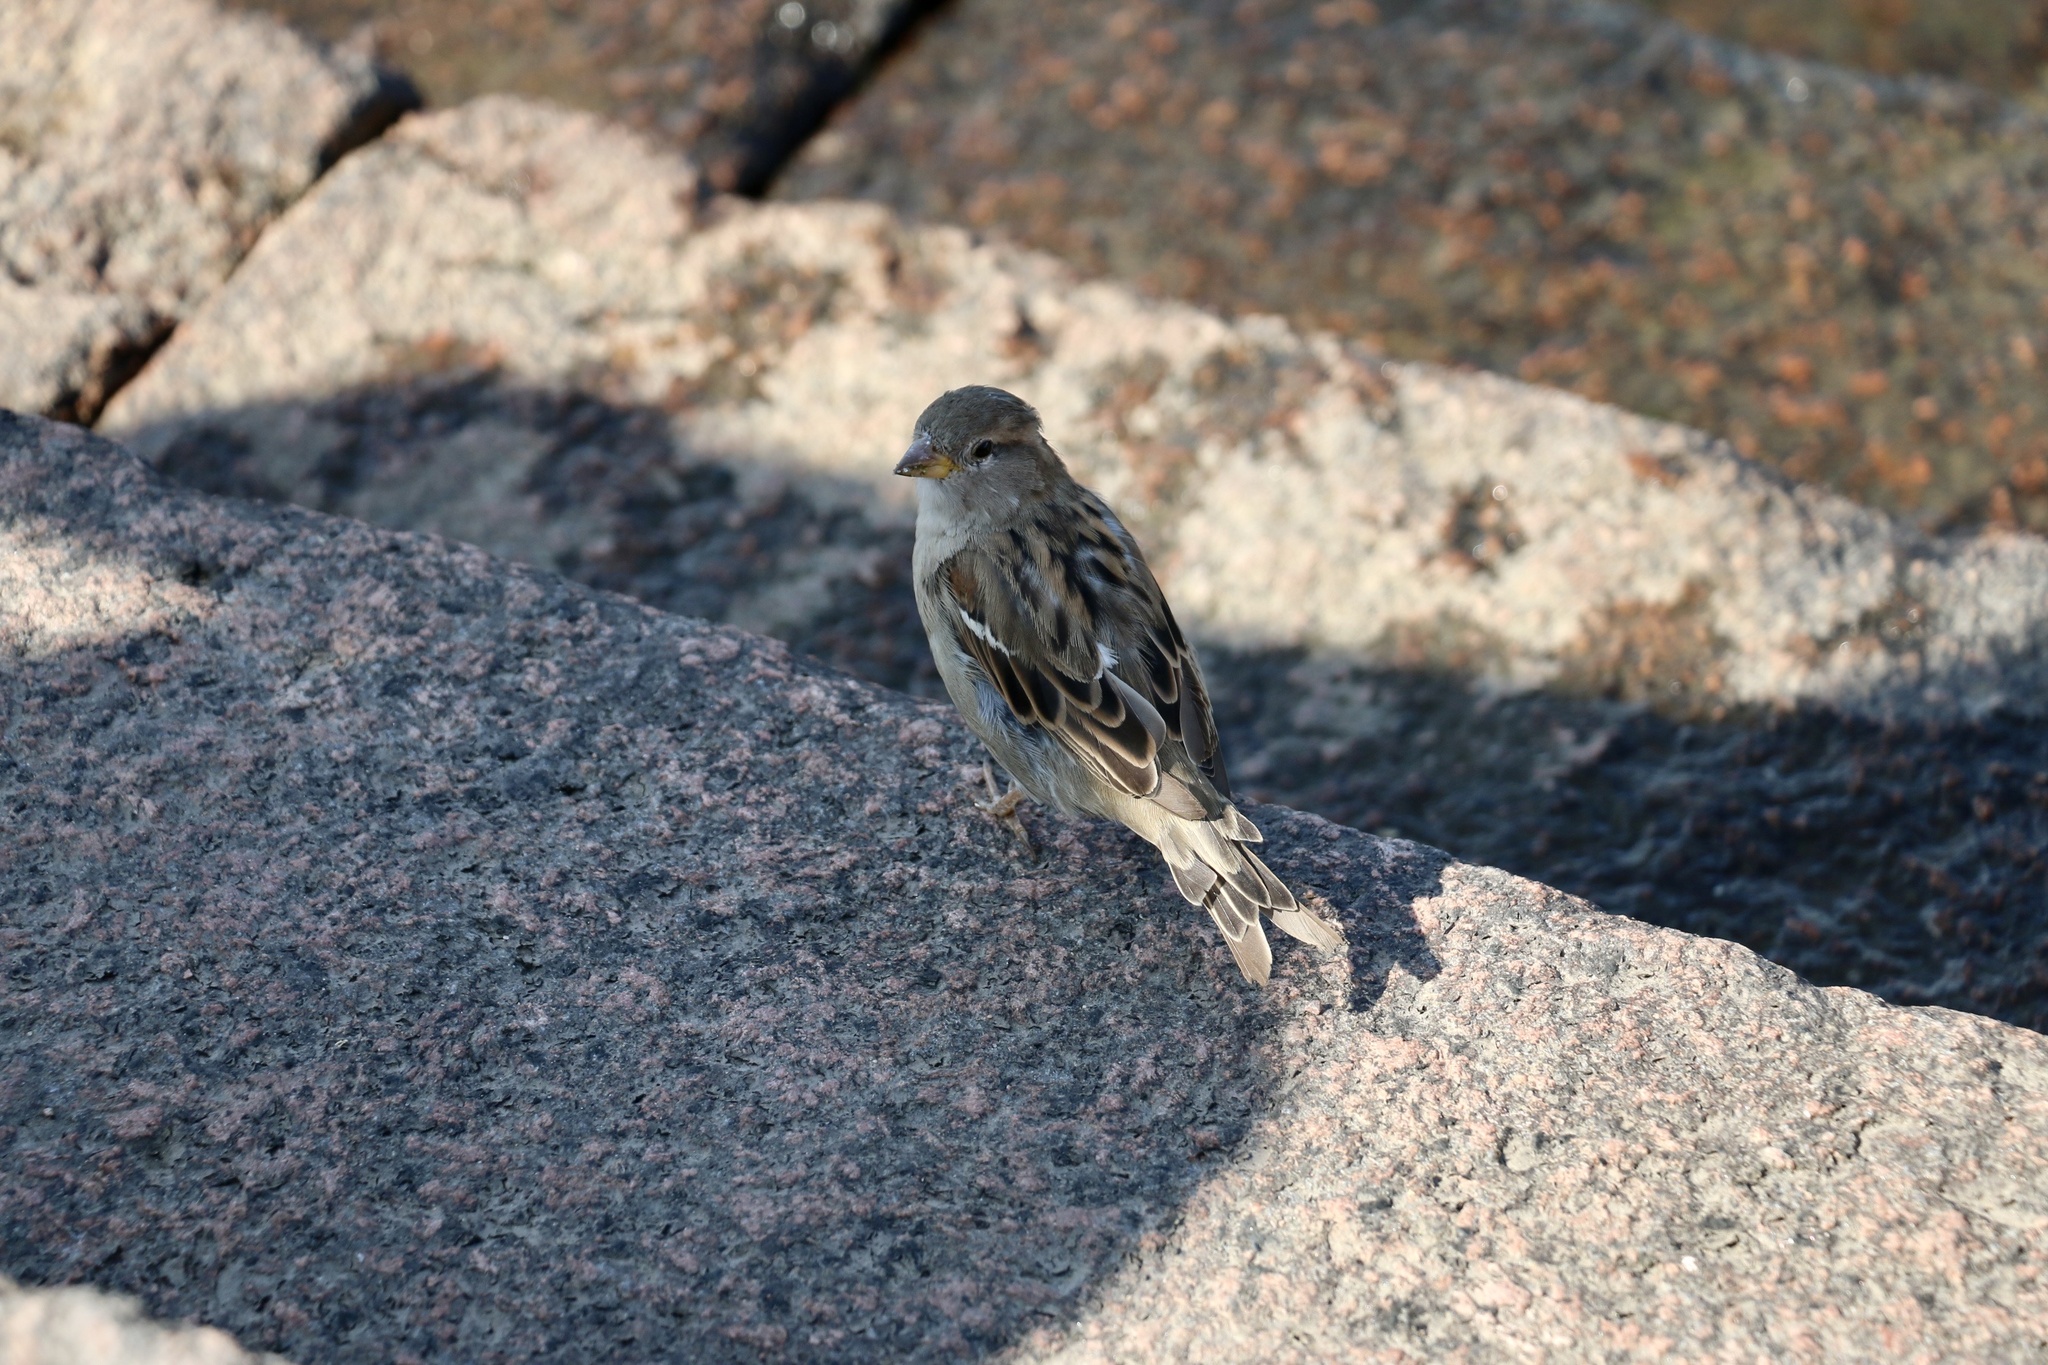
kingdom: Animalia
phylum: Chordata
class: Aves
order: Passeriformes
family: Passeridae
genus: Passer
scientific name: Passer domesticus
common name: House sparrow
